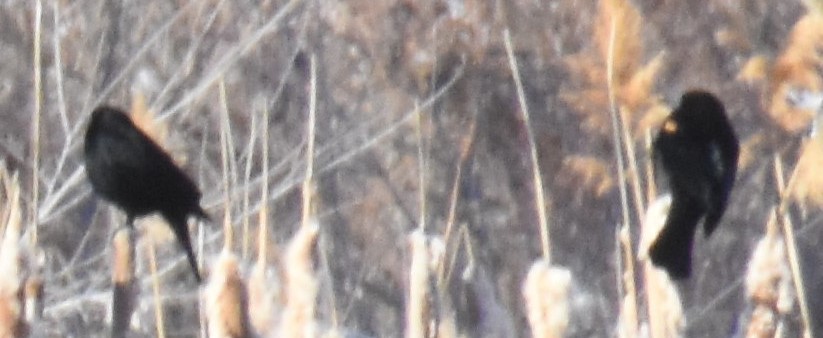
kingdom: Animalia
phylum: Chordata
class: Aves
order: Passeriformes
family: Icteridae
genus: Agelaius
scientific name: Agelaius phoeniceus
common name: Red-winged blackbird
